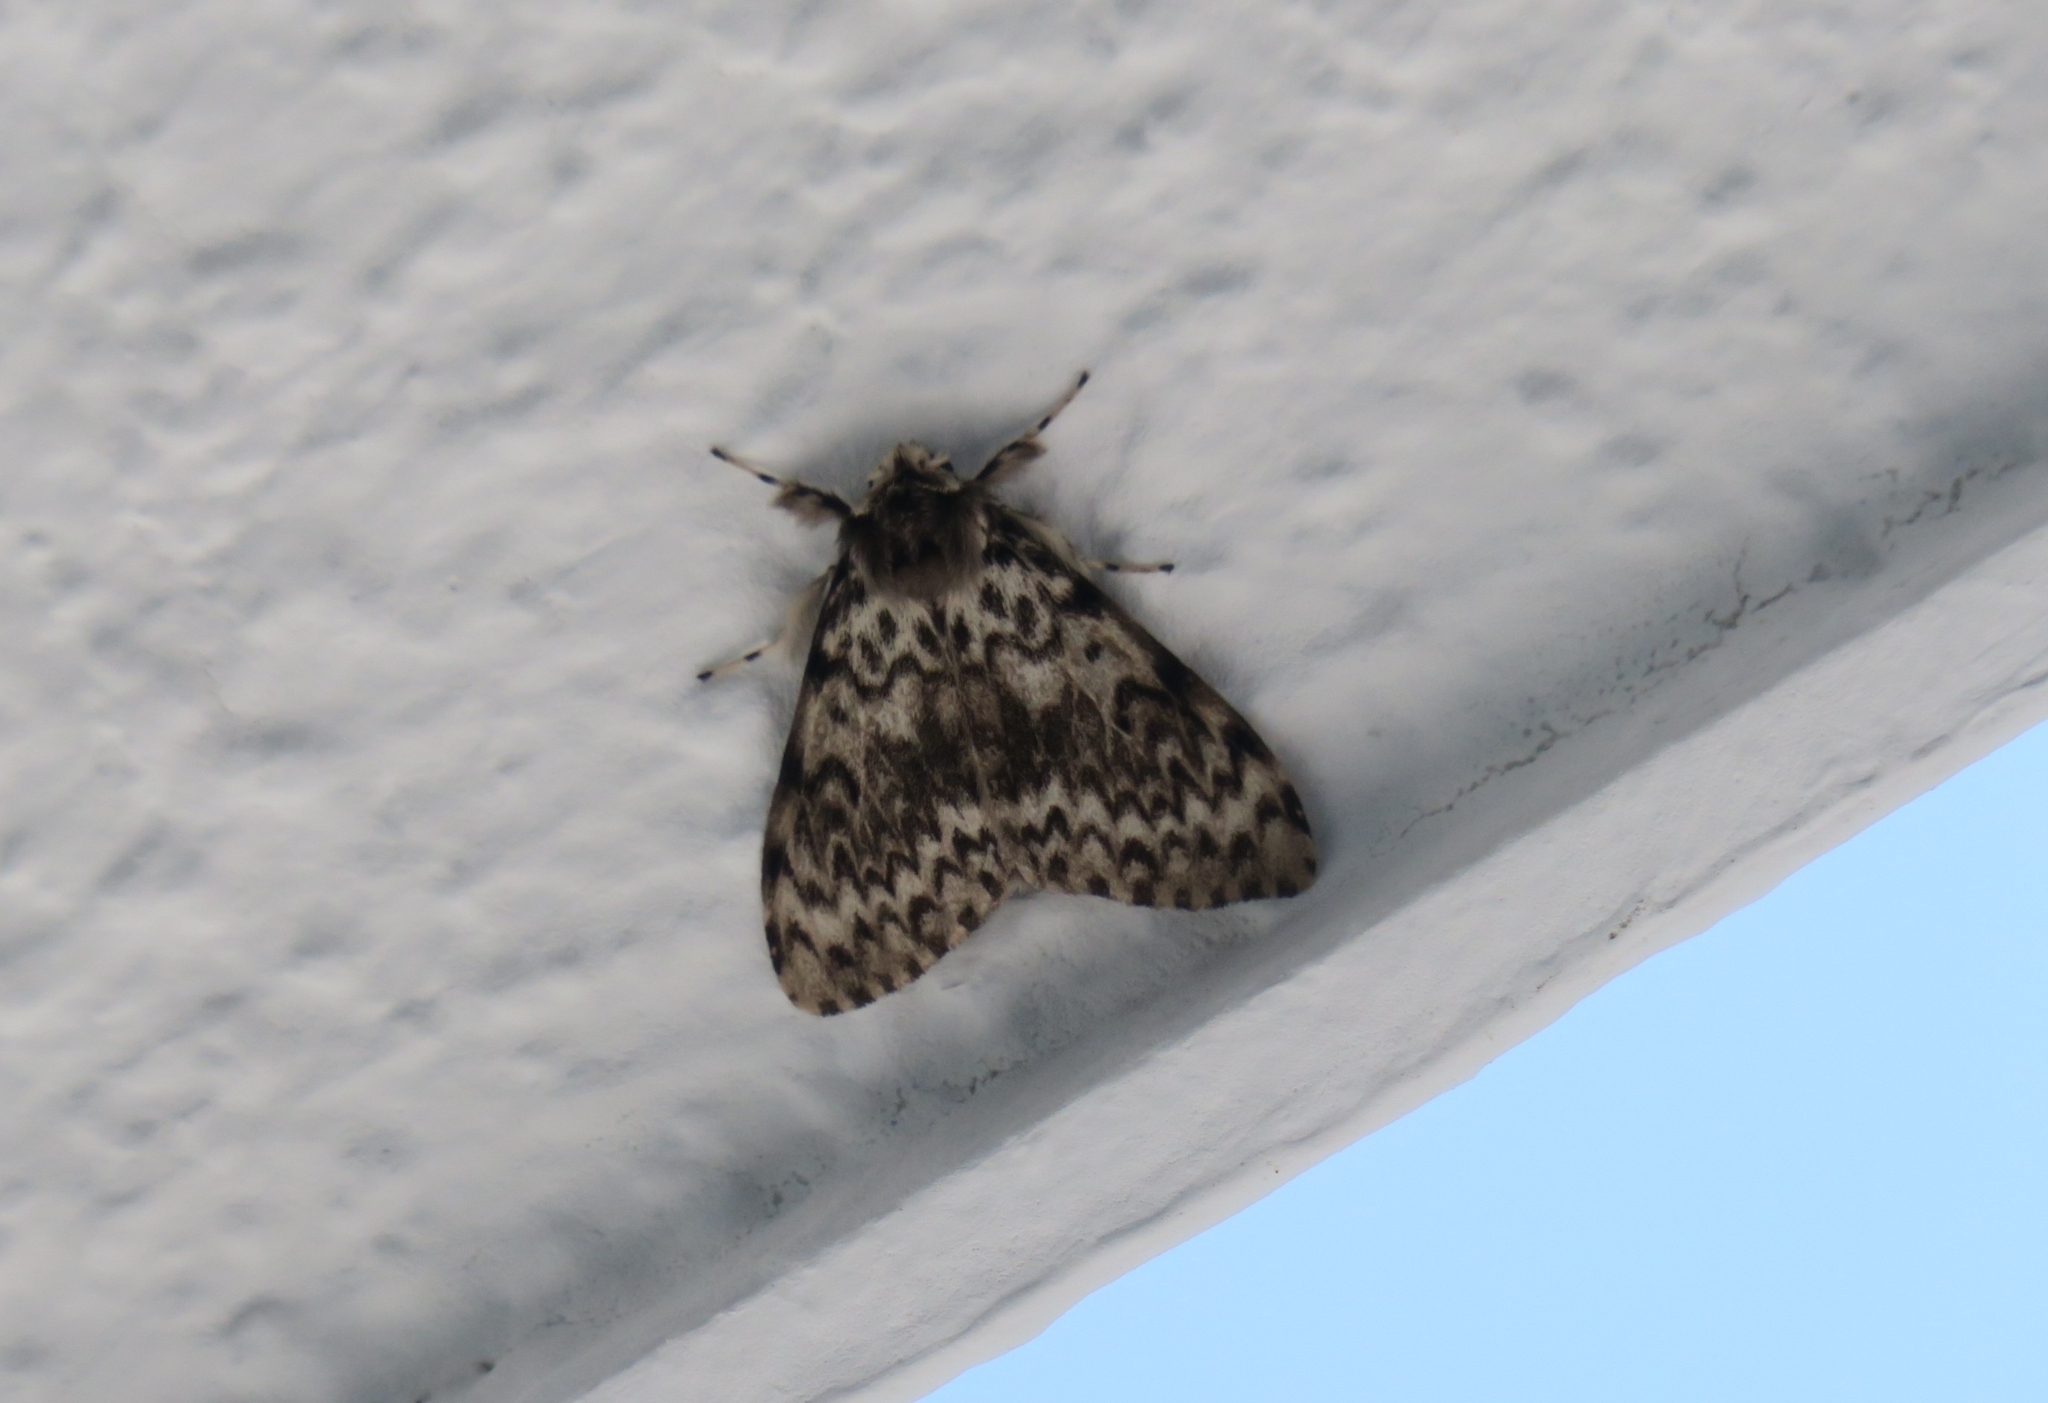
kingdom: Animalia
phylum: Arthropoda
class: Insecta
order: Lepidoptera
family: Erebidae
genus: Lymantria
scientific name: Lymantria monacha
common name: Black arches
